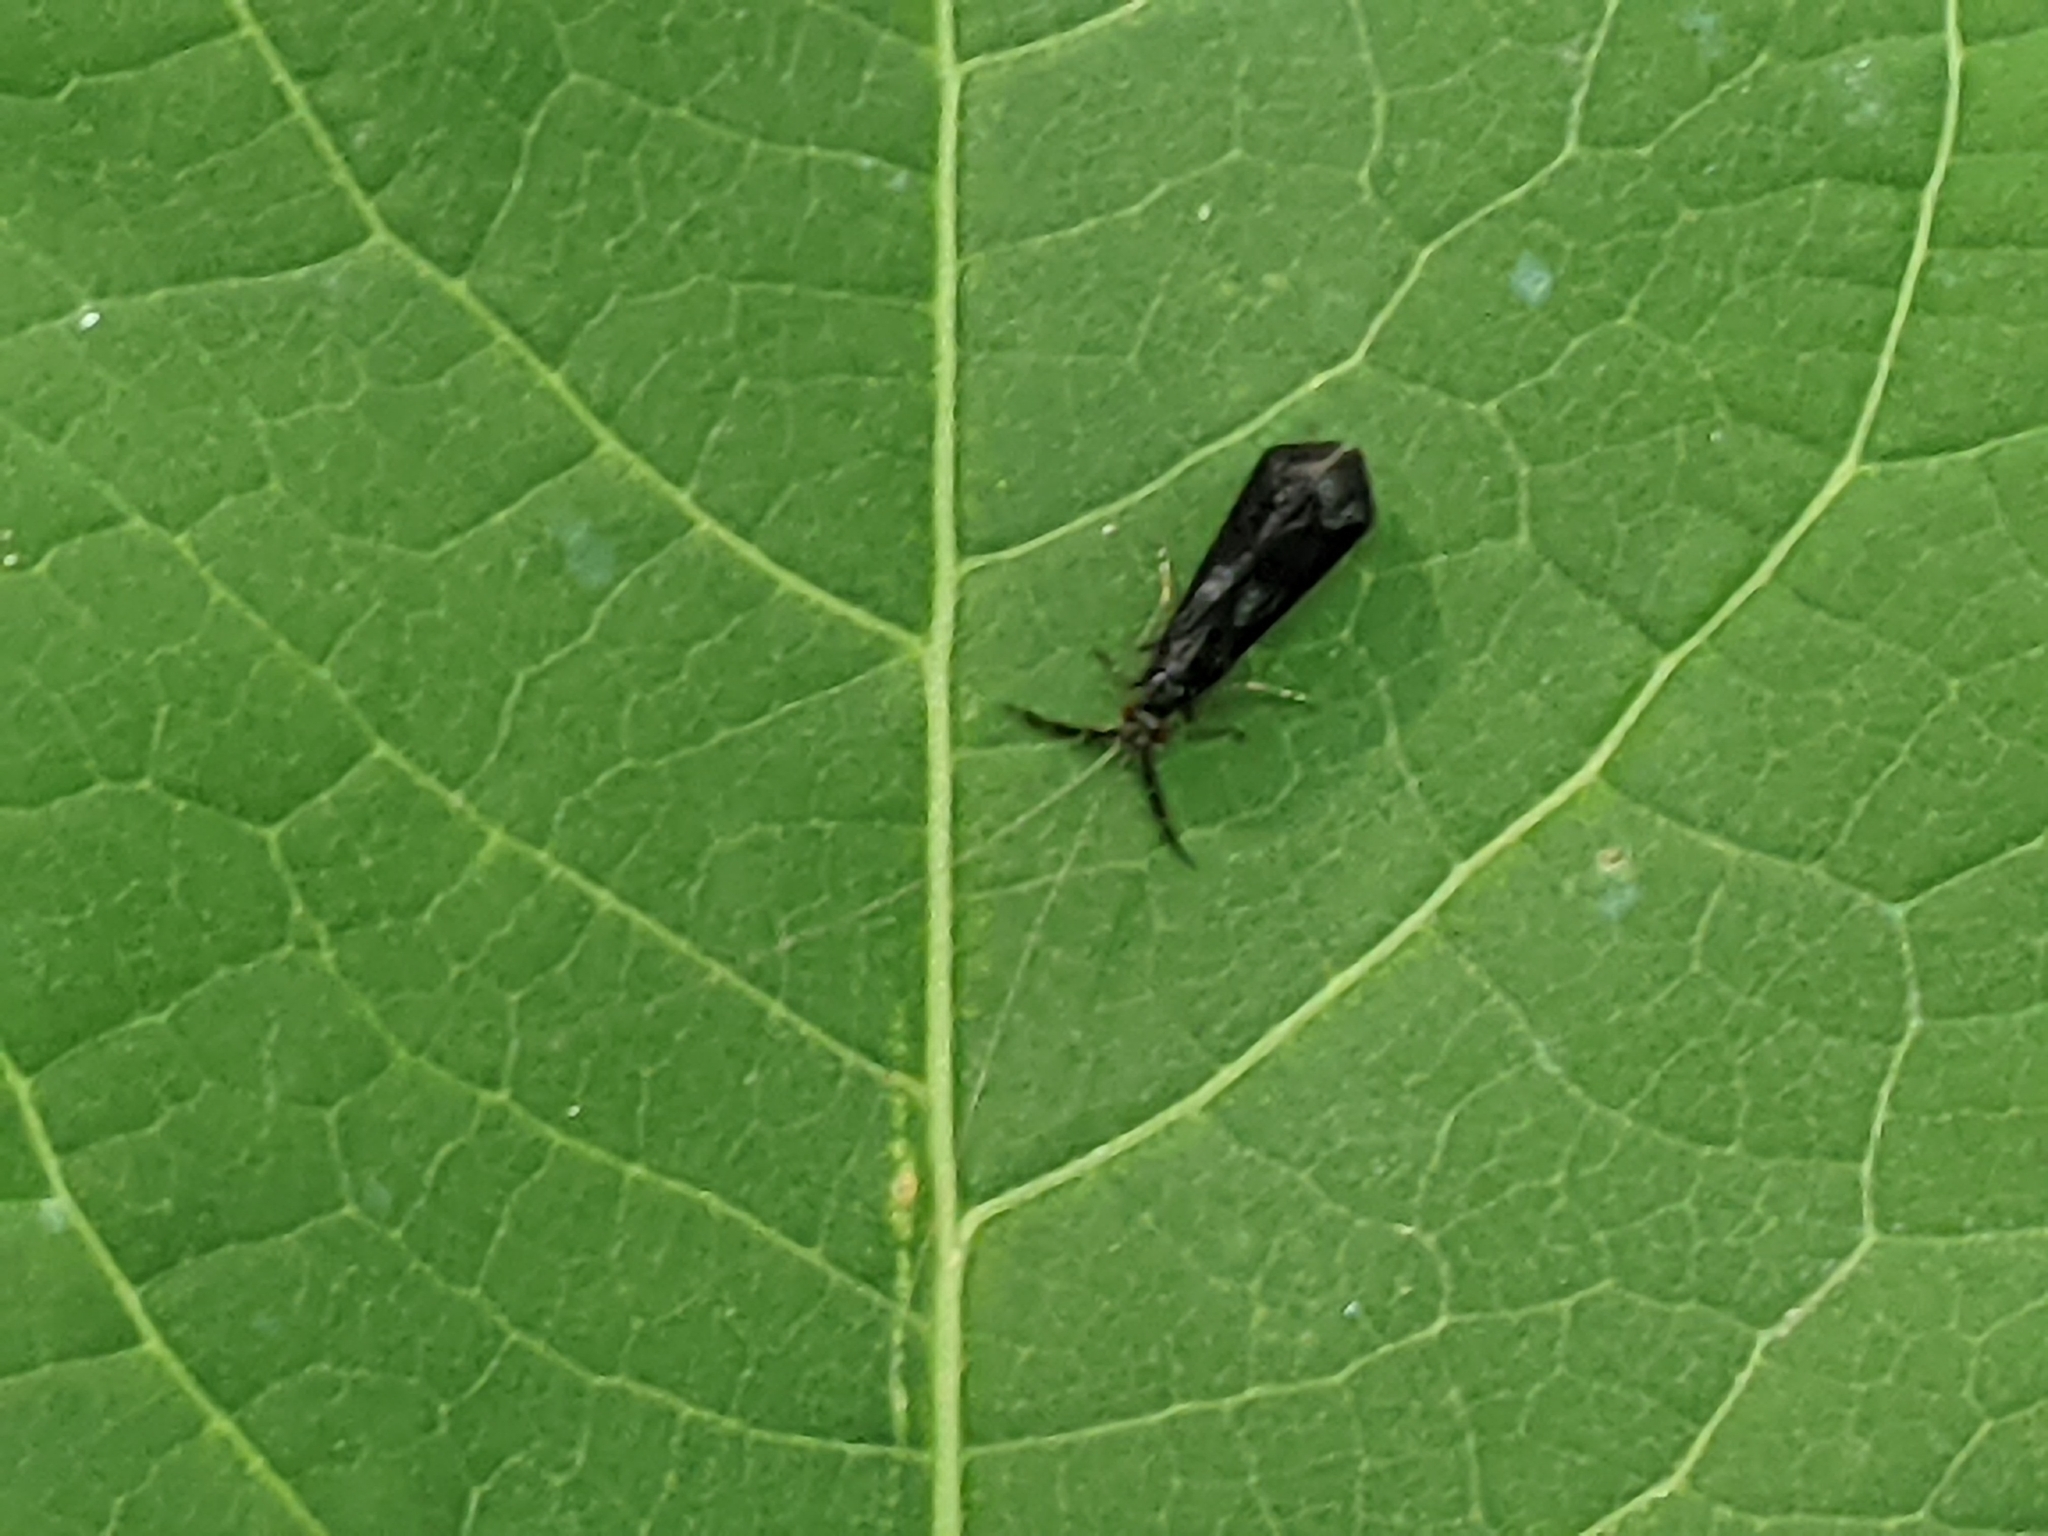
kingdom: Animalia
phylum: Arthropoda
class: Insecta
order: Trichoptera
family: Leptoceridae
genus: Mystacides
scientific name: Mystacides sepulchralis
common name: Black dancer caddisfly
